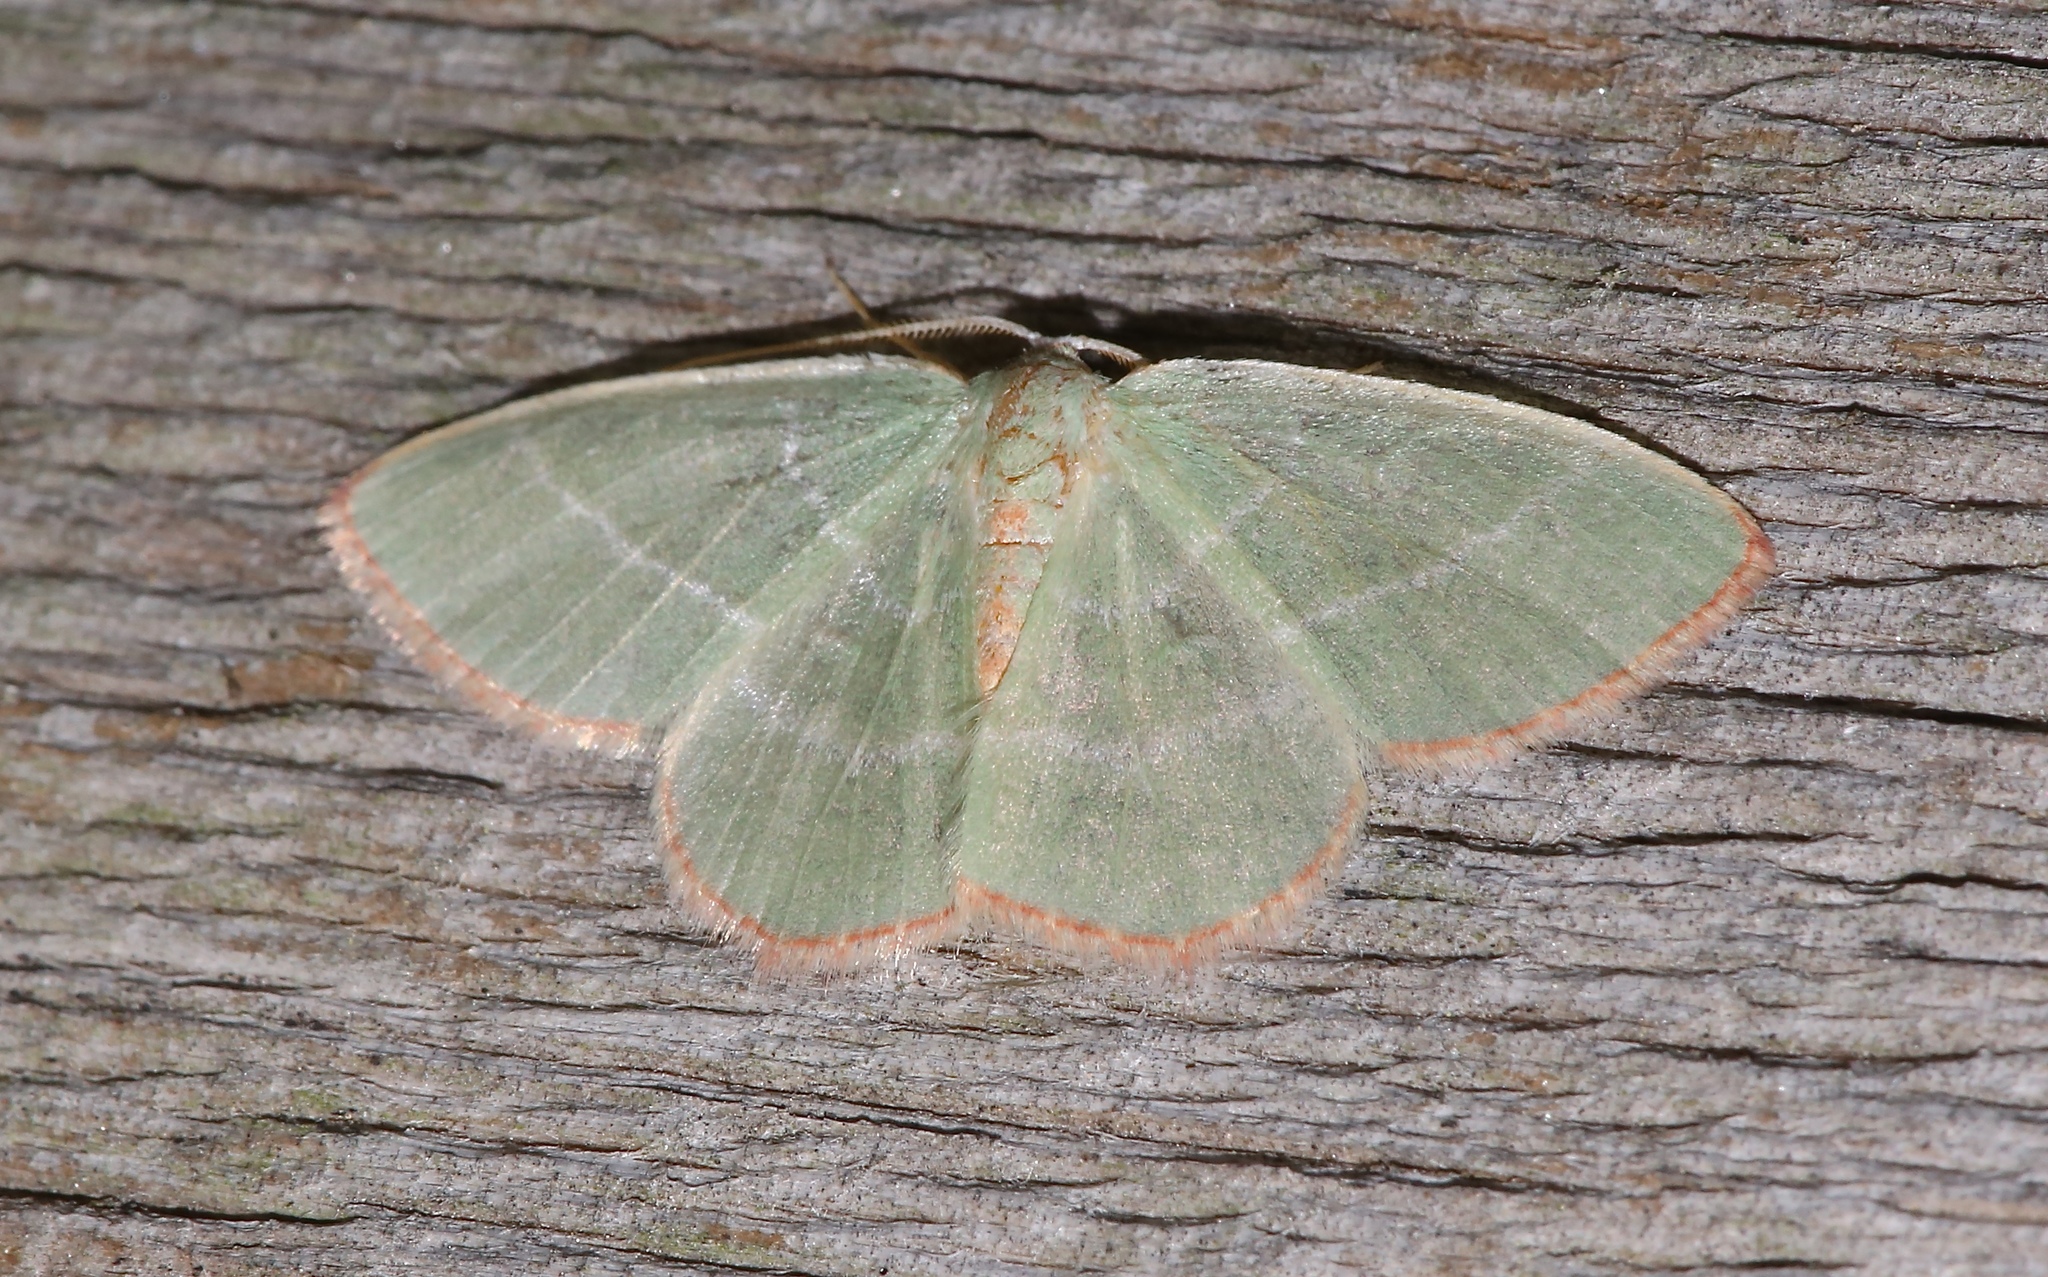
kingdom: Animalia
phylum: Arthropoda
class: Insecta
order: Lepidoptera
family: Geometridae
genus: Nemoria
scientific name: Nemoria bistriaria
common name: Red-fringed emerald
